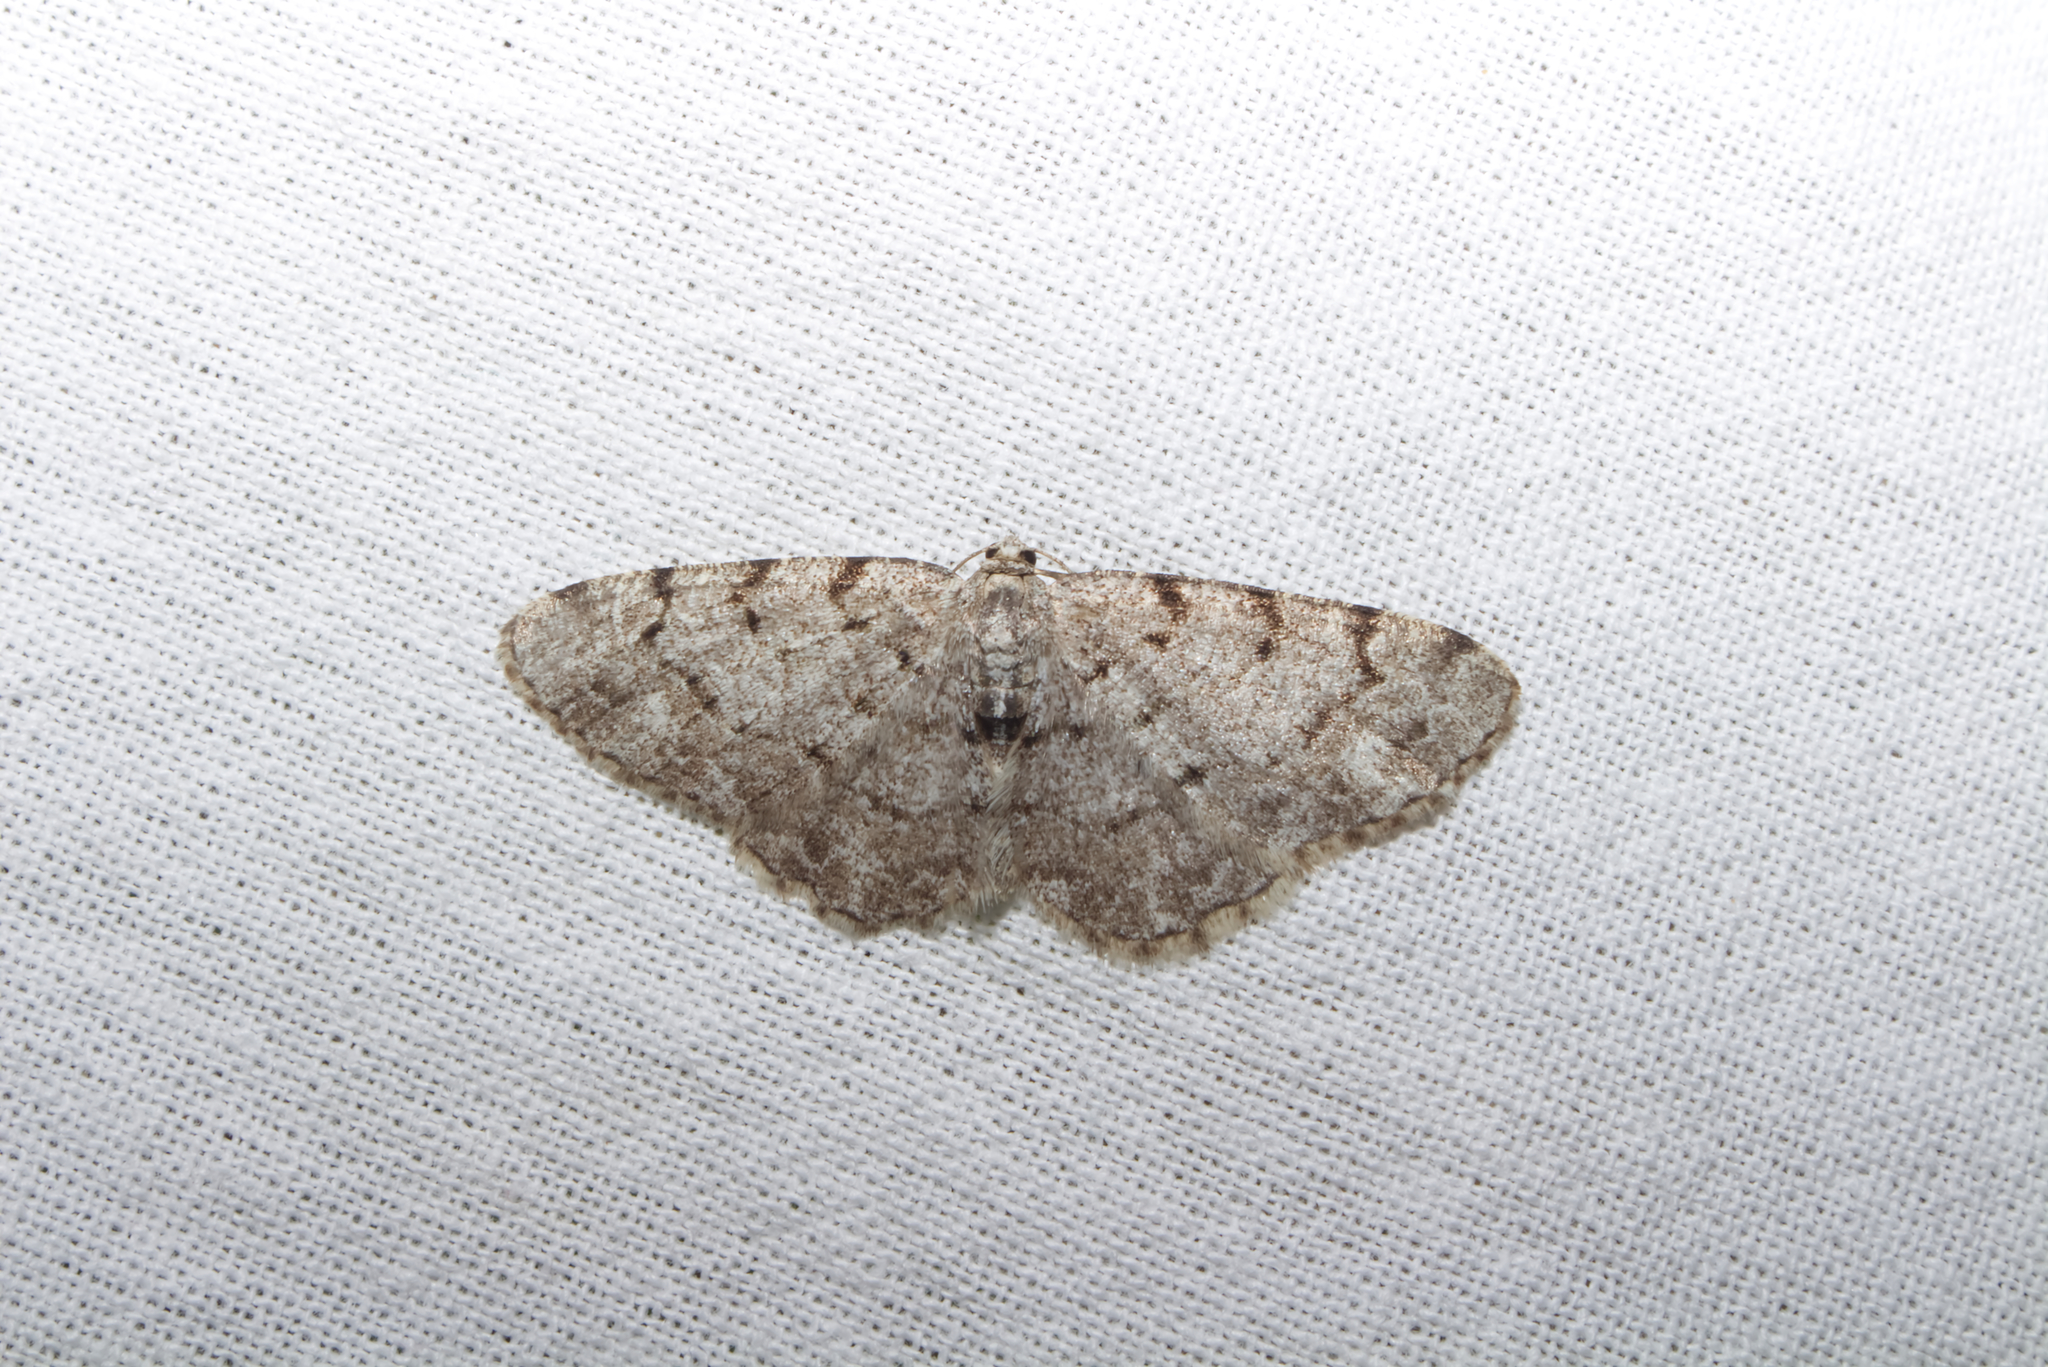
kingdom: Animalia
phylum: Arthropoda
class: Insecta
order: Lepidoptera
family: Geometridae
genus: Aethalura
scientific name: Aethalura punctulata
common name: Grey birch
